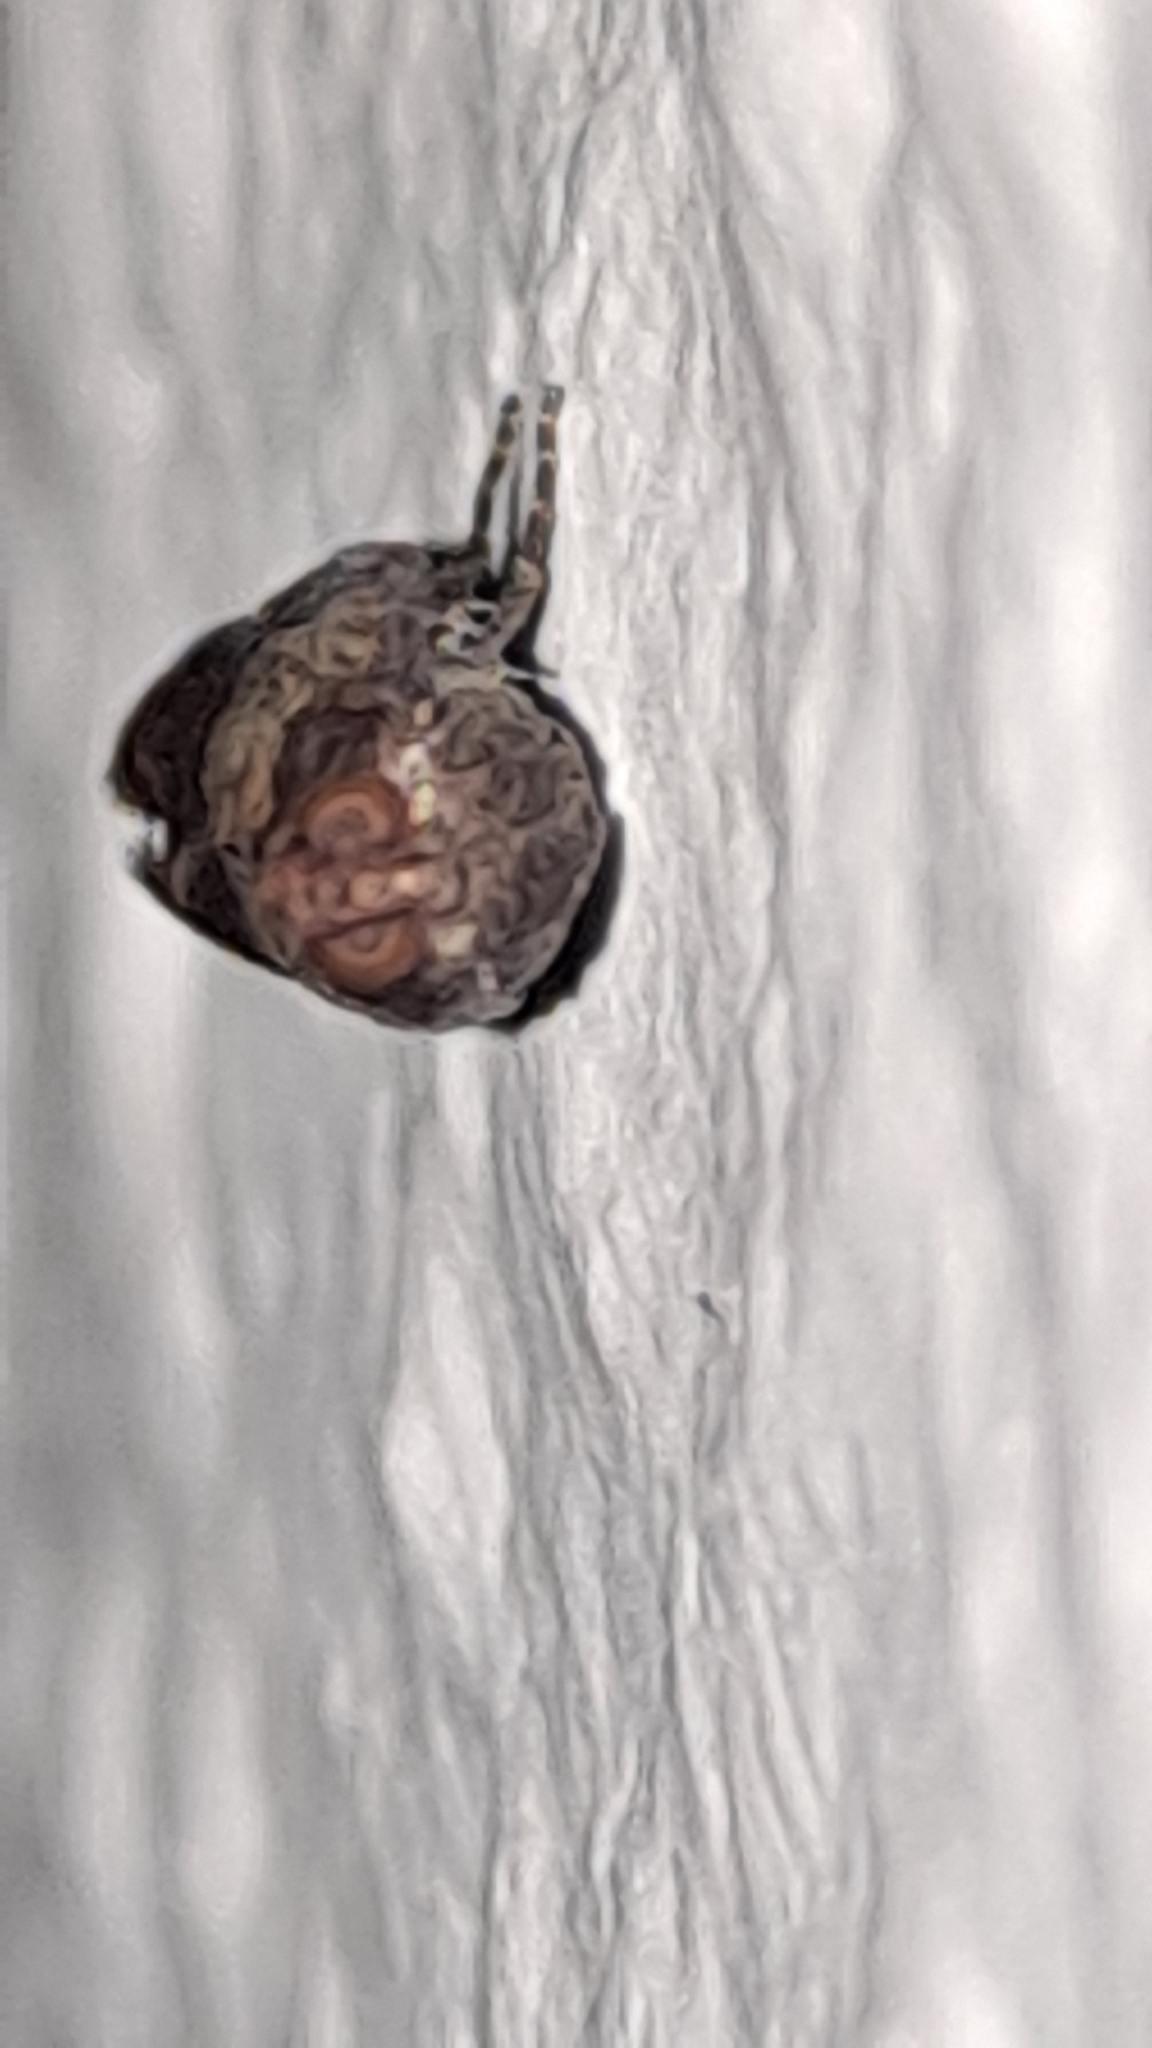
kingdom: Animalia
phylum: Arthropoda
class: Insecta
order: Lepidoptera
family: Pyralidae
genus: Plodia
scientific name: Plodia interpunctella
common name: Indian meal moth
